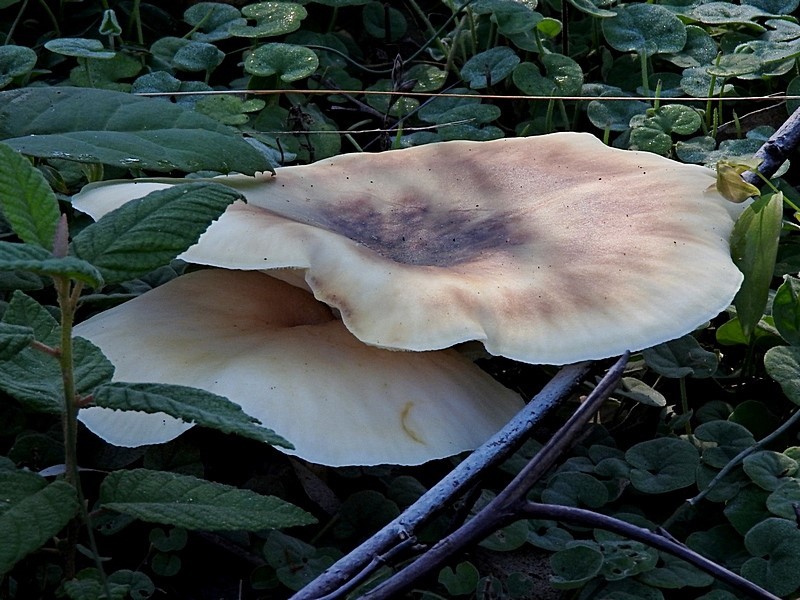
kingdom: Fungi
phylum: Basidiomycota
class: Agaricomycetes
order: Agaricales
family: Omphalotaceae
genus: Omphalotus
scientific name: Omphalotus nidiformis
